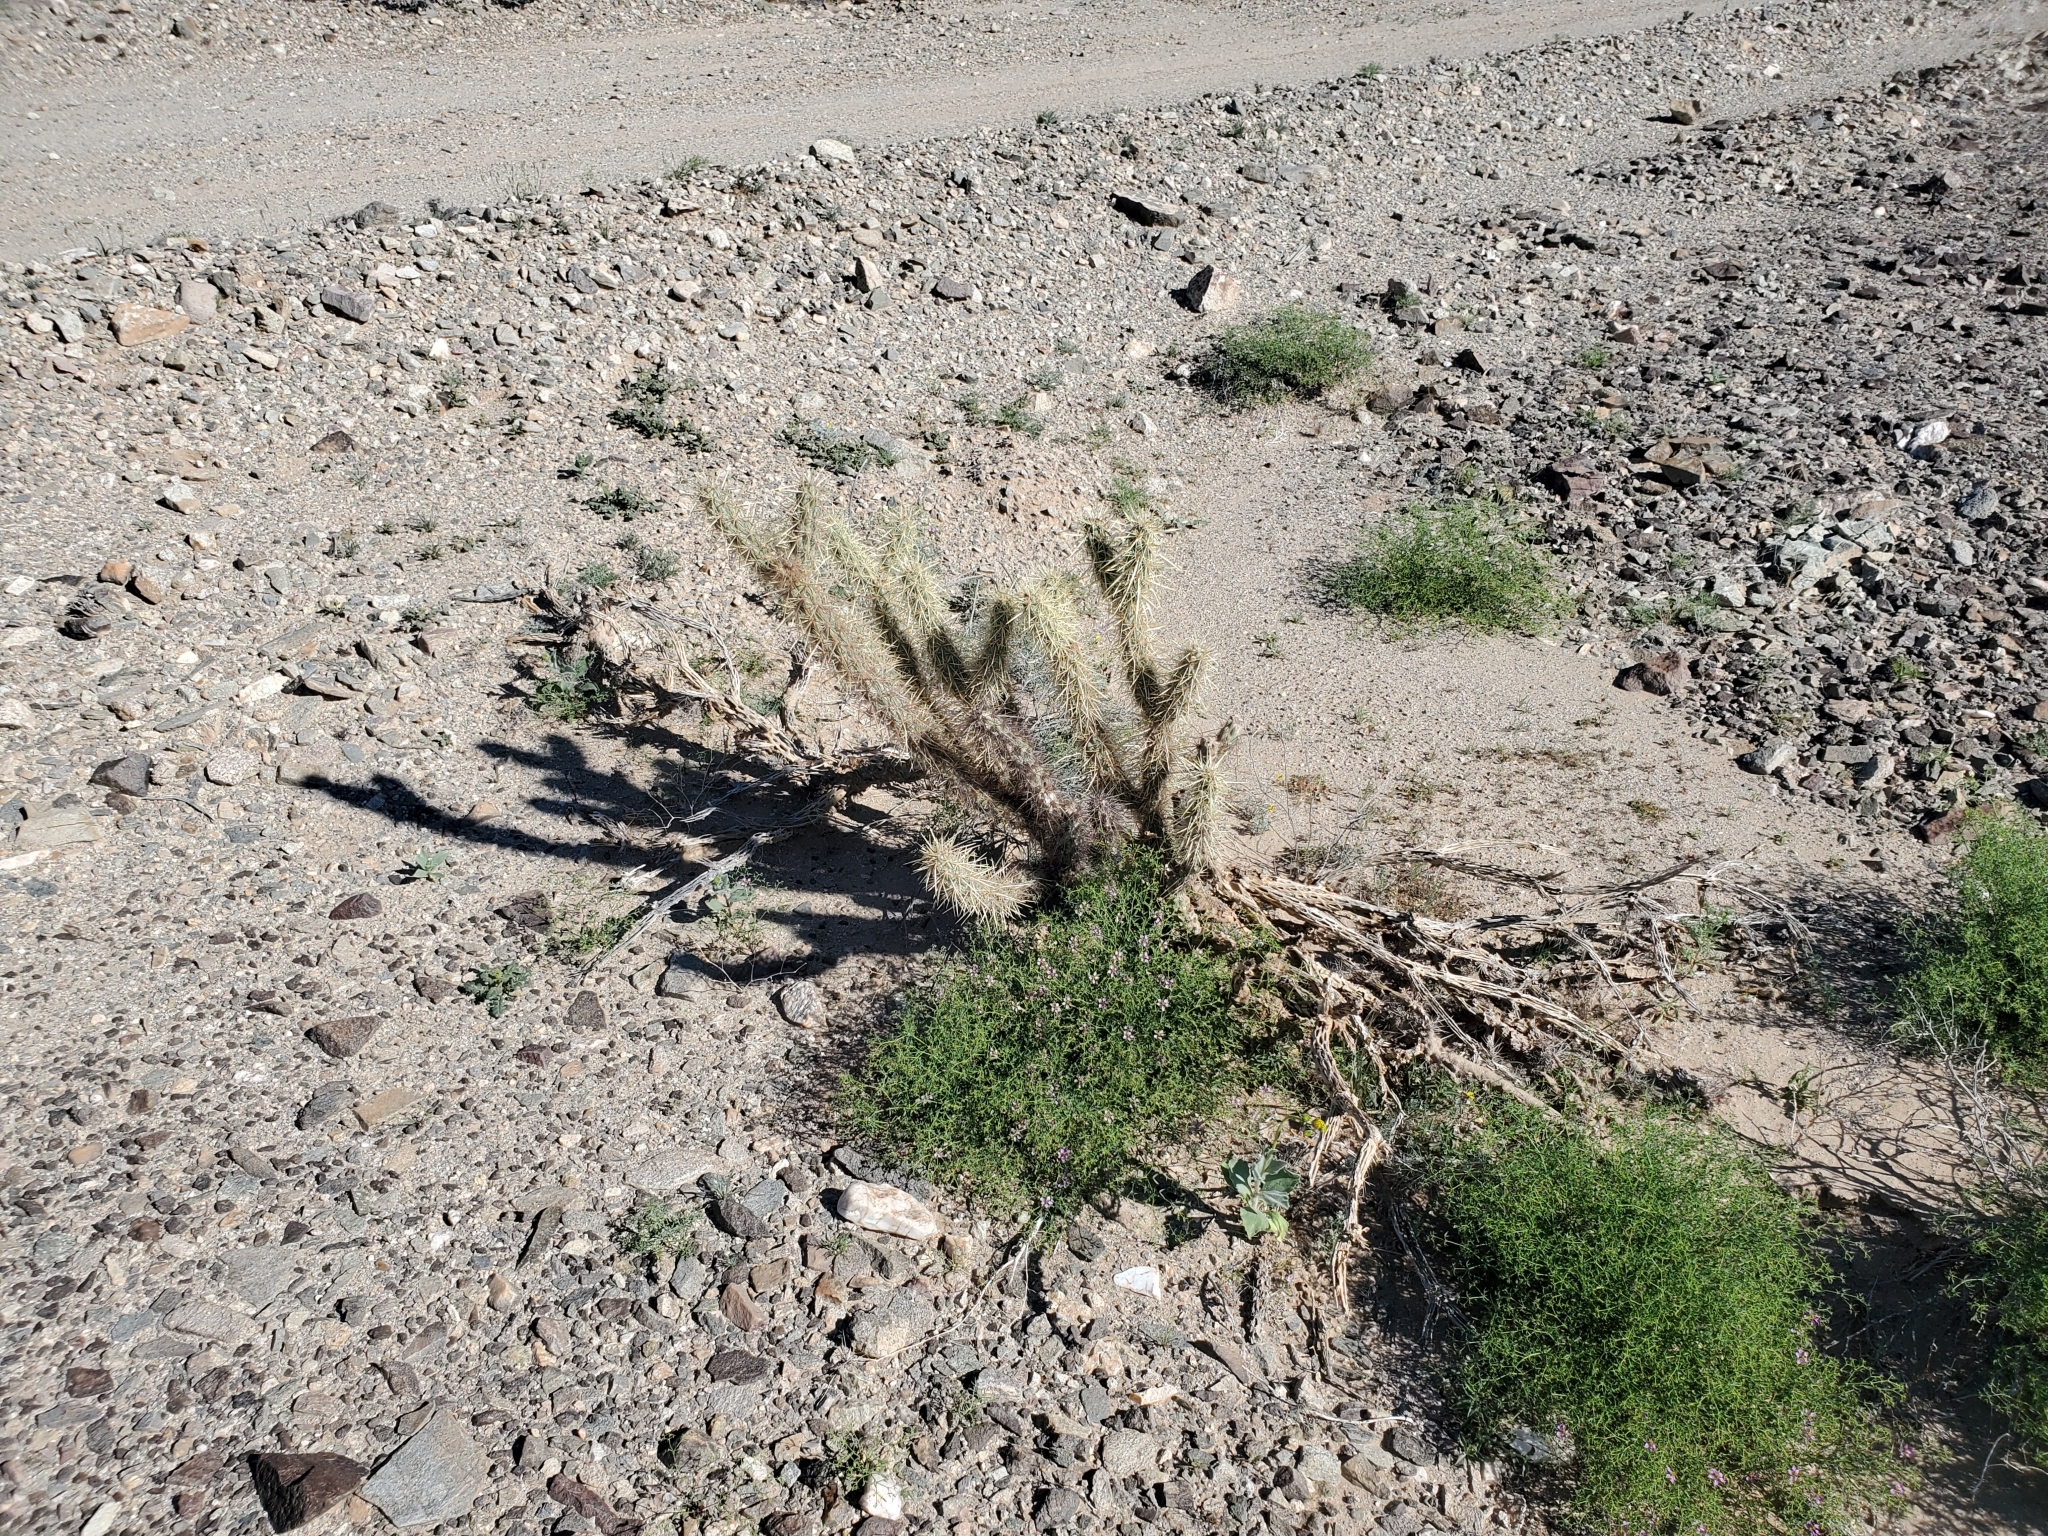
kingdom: Plantae
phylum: Tracheophyta
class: Magnoliopsida
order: Caryophyllales
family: Cactaceae
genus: Cylindropuntia
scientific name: Cylindropuntia acanthocarpa
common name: Buckhorn cholla
